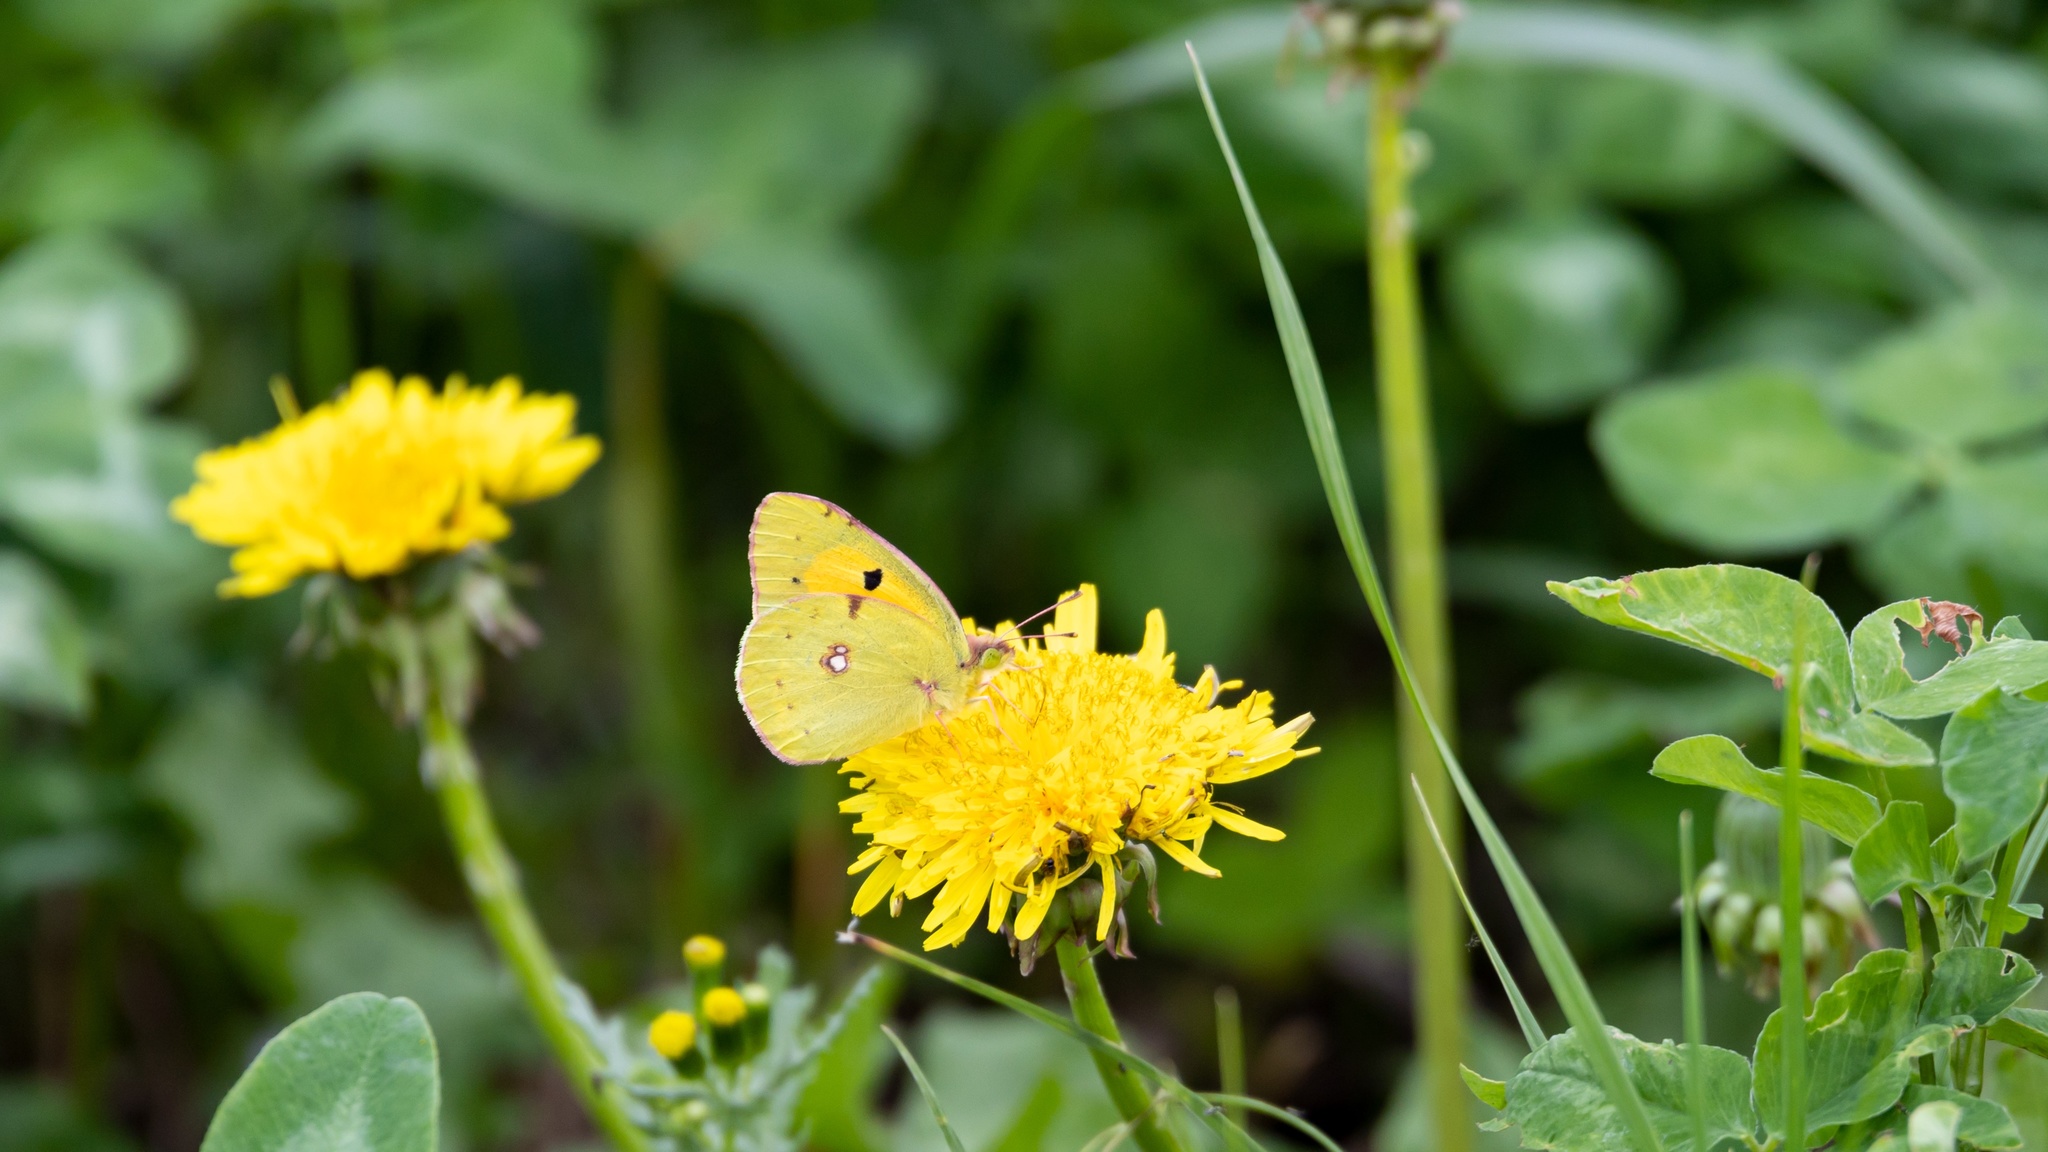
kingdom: Animalia
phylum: Arthropoda
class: Insecta
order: Lepidoptera
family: Pieridae
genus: Colias
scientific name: Colias croceus
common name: Clouded yellow
